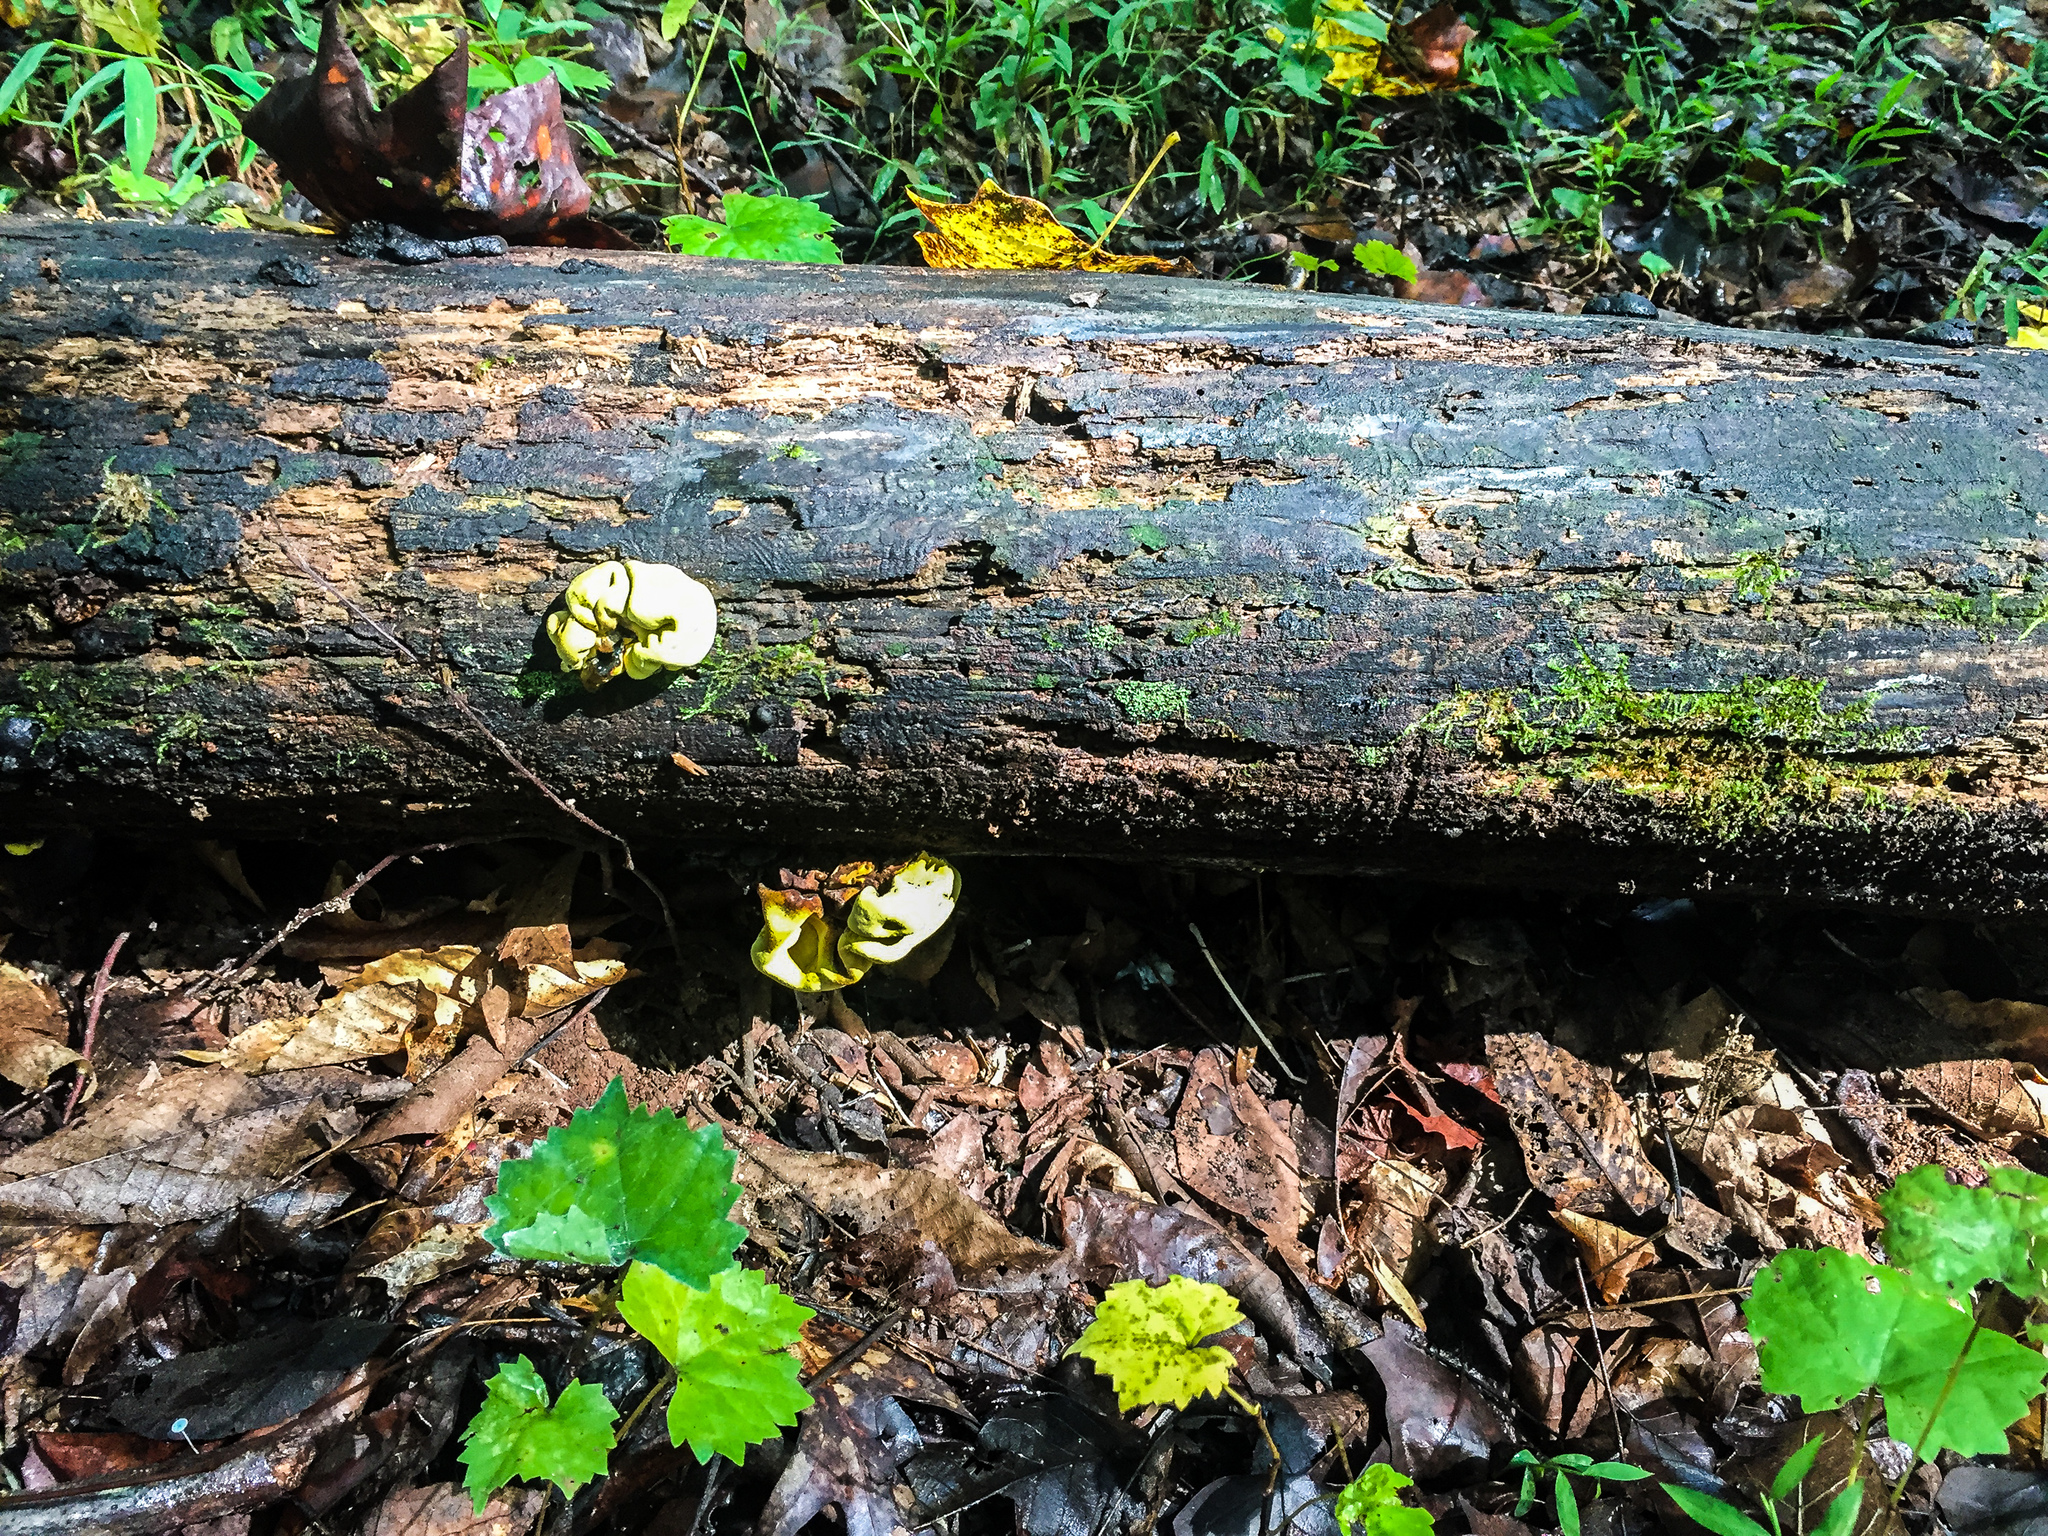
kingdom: Fungi
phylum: Ascomycota
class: Sordariomycetes
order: Xylariales
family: Hypoxylaceae
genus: Entonaema
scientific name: Entonaema liquescens
